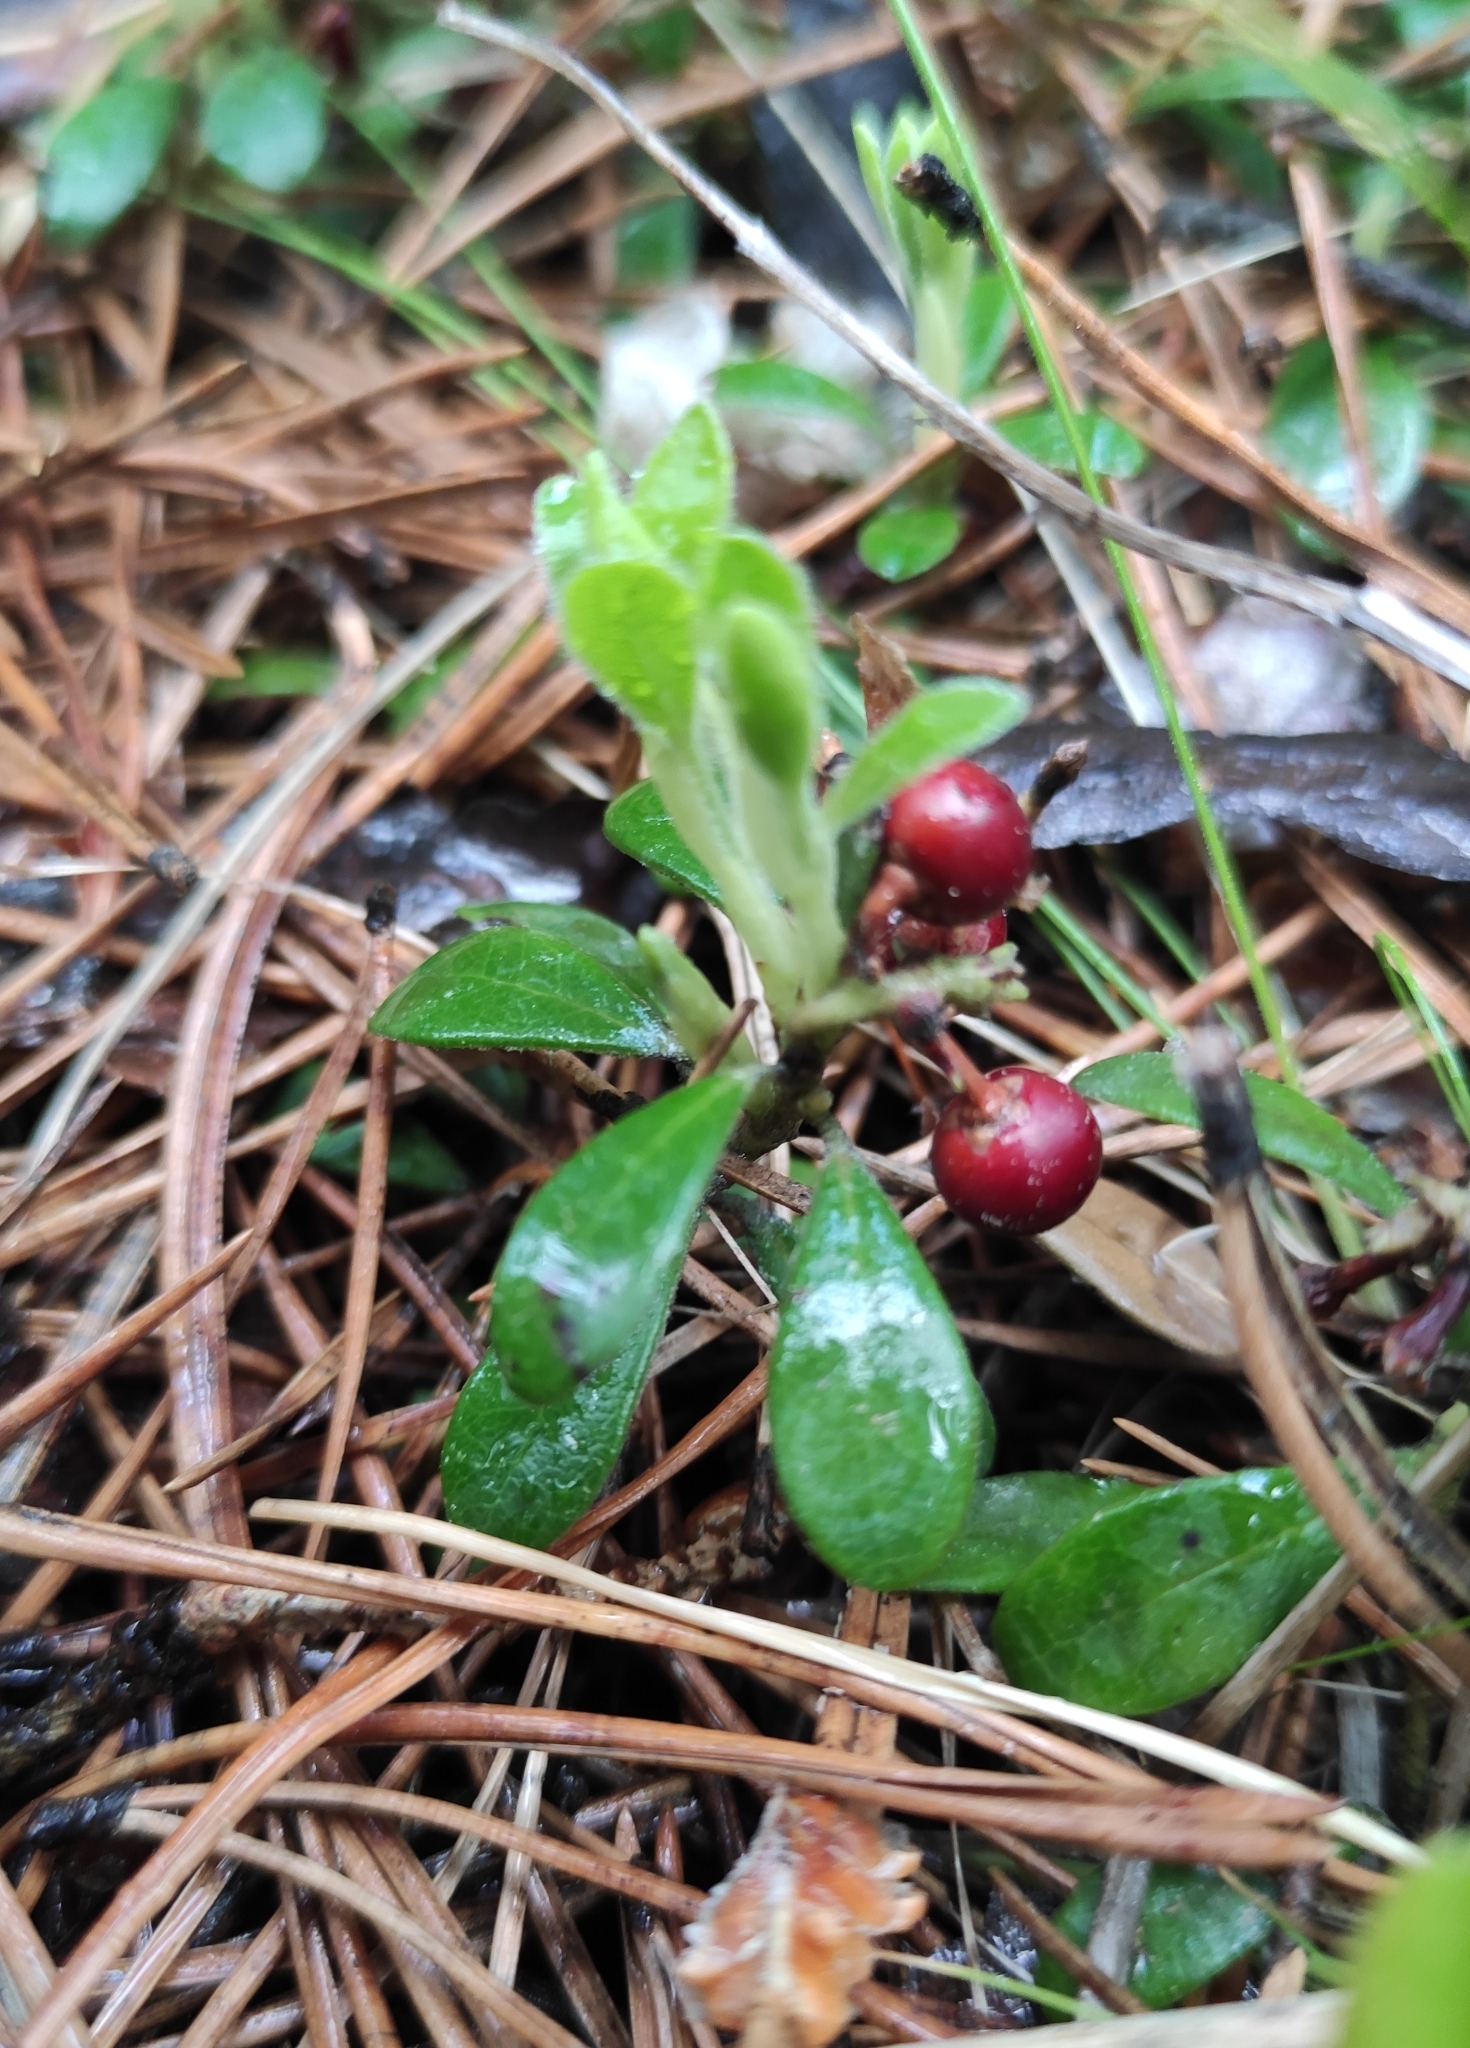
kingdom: Plantae
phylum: Tracheophyta
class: Magnoliopsida
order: Ericales
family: Ericaceae
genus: Arctostaphylos
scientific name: Arctostaphylos uva-ursi
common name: Bearberry
